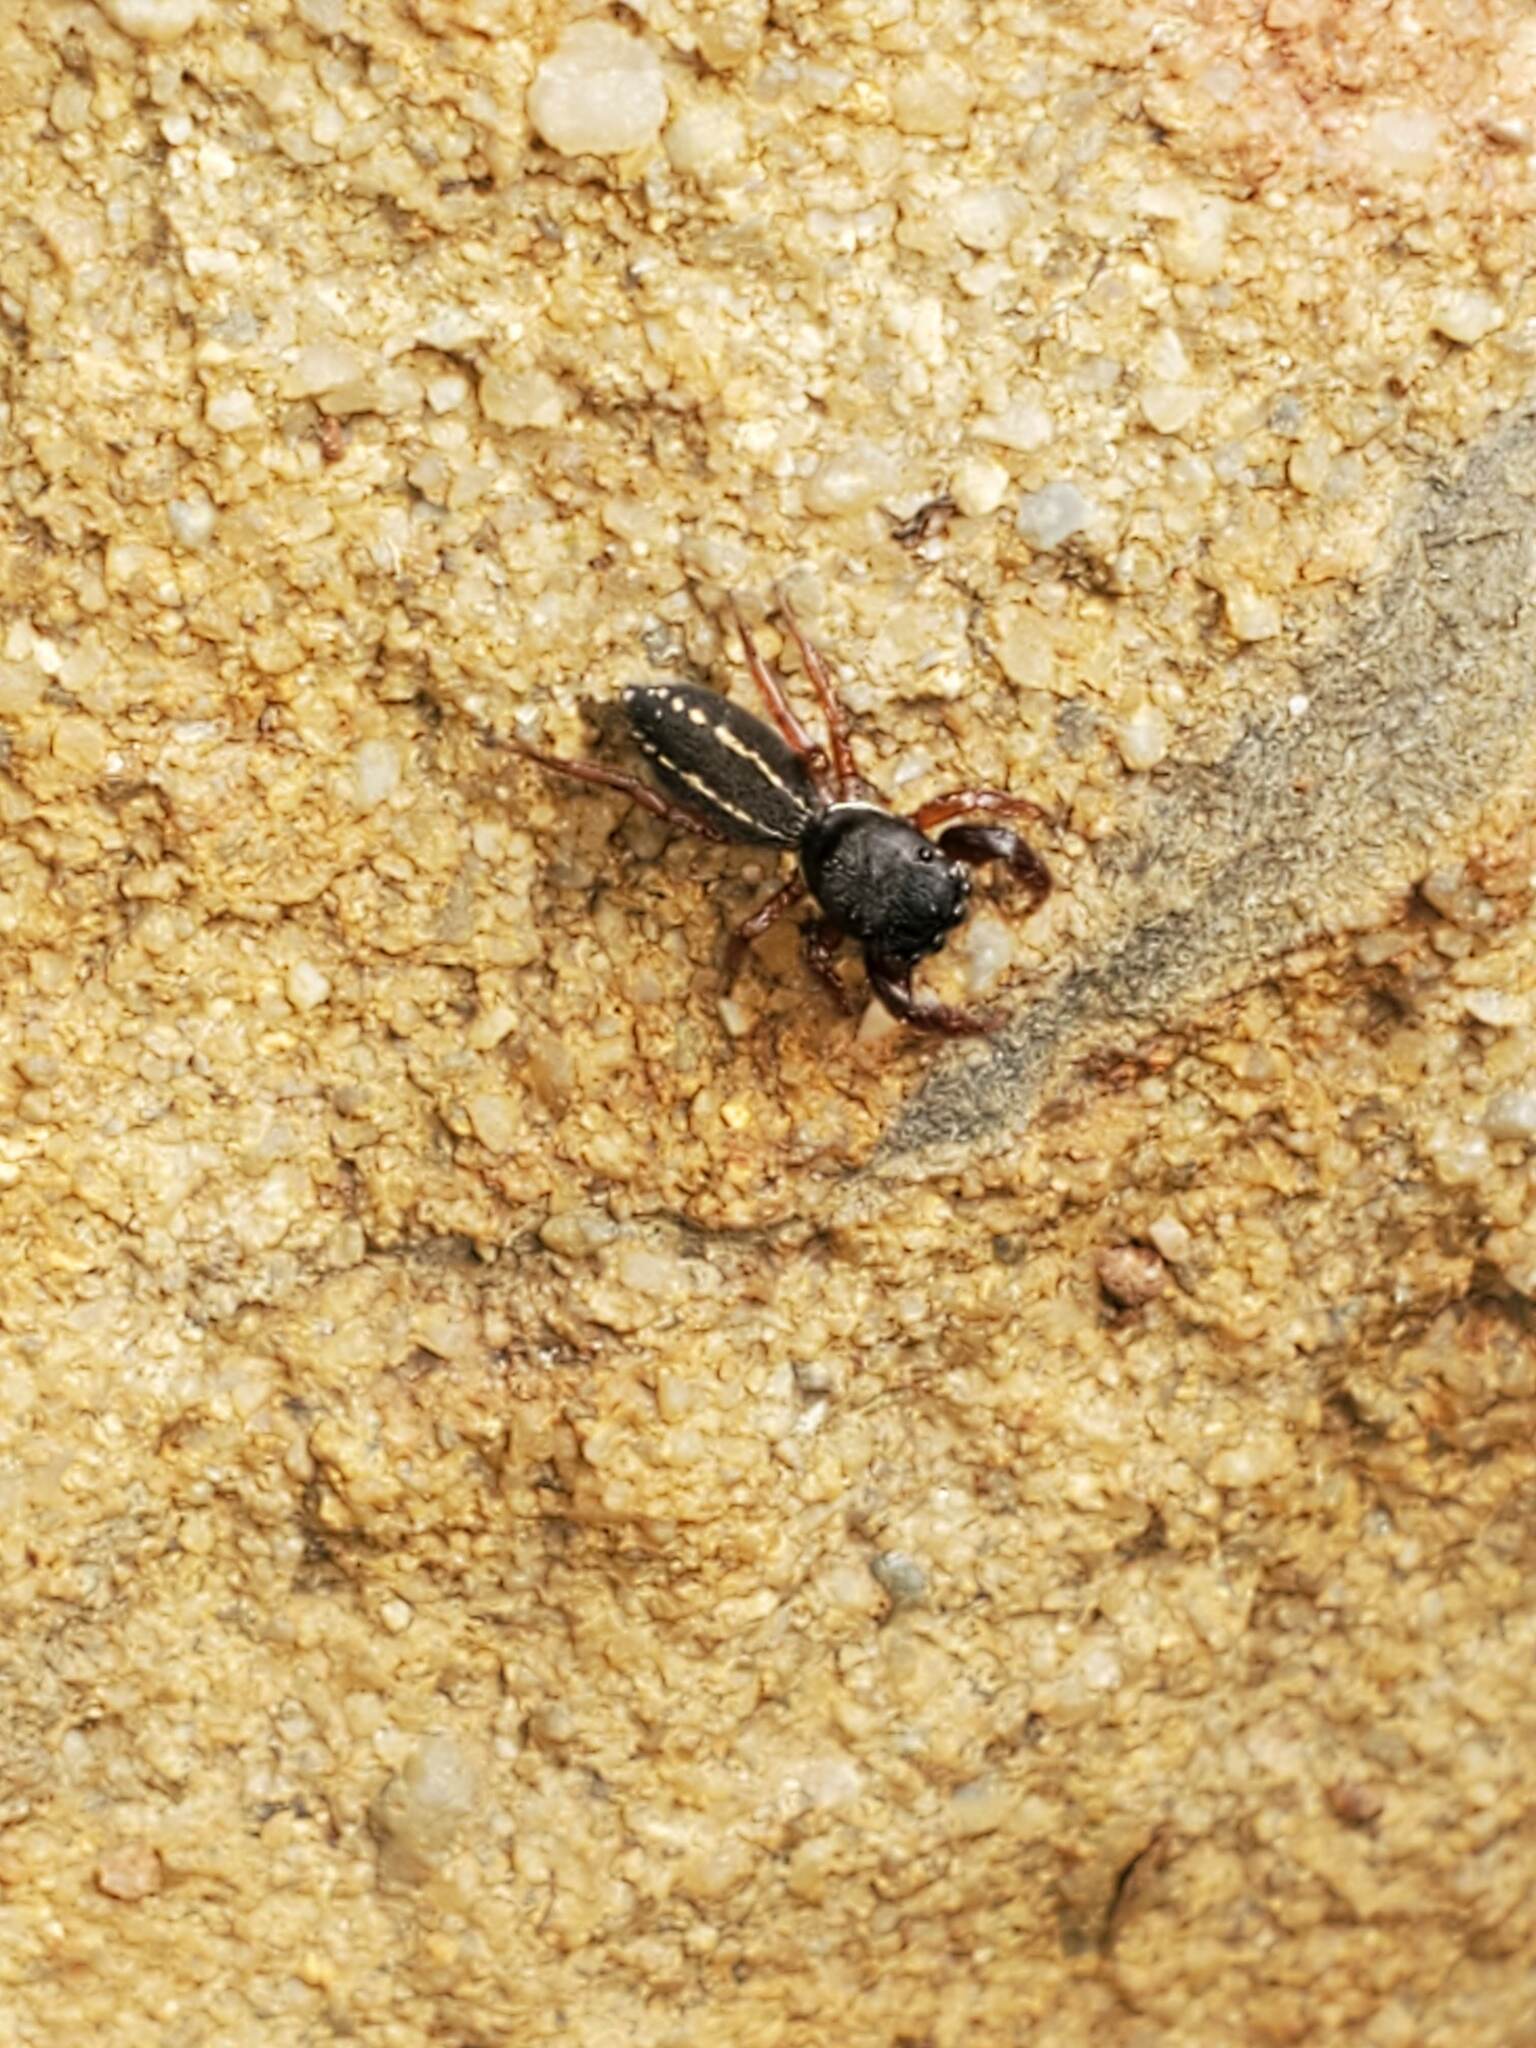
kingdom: Animalia
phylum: Arthropoda
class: Arachnida
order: Araneae
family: Salticidae
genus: Metacyrba
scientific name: Metacyrba taeniola
